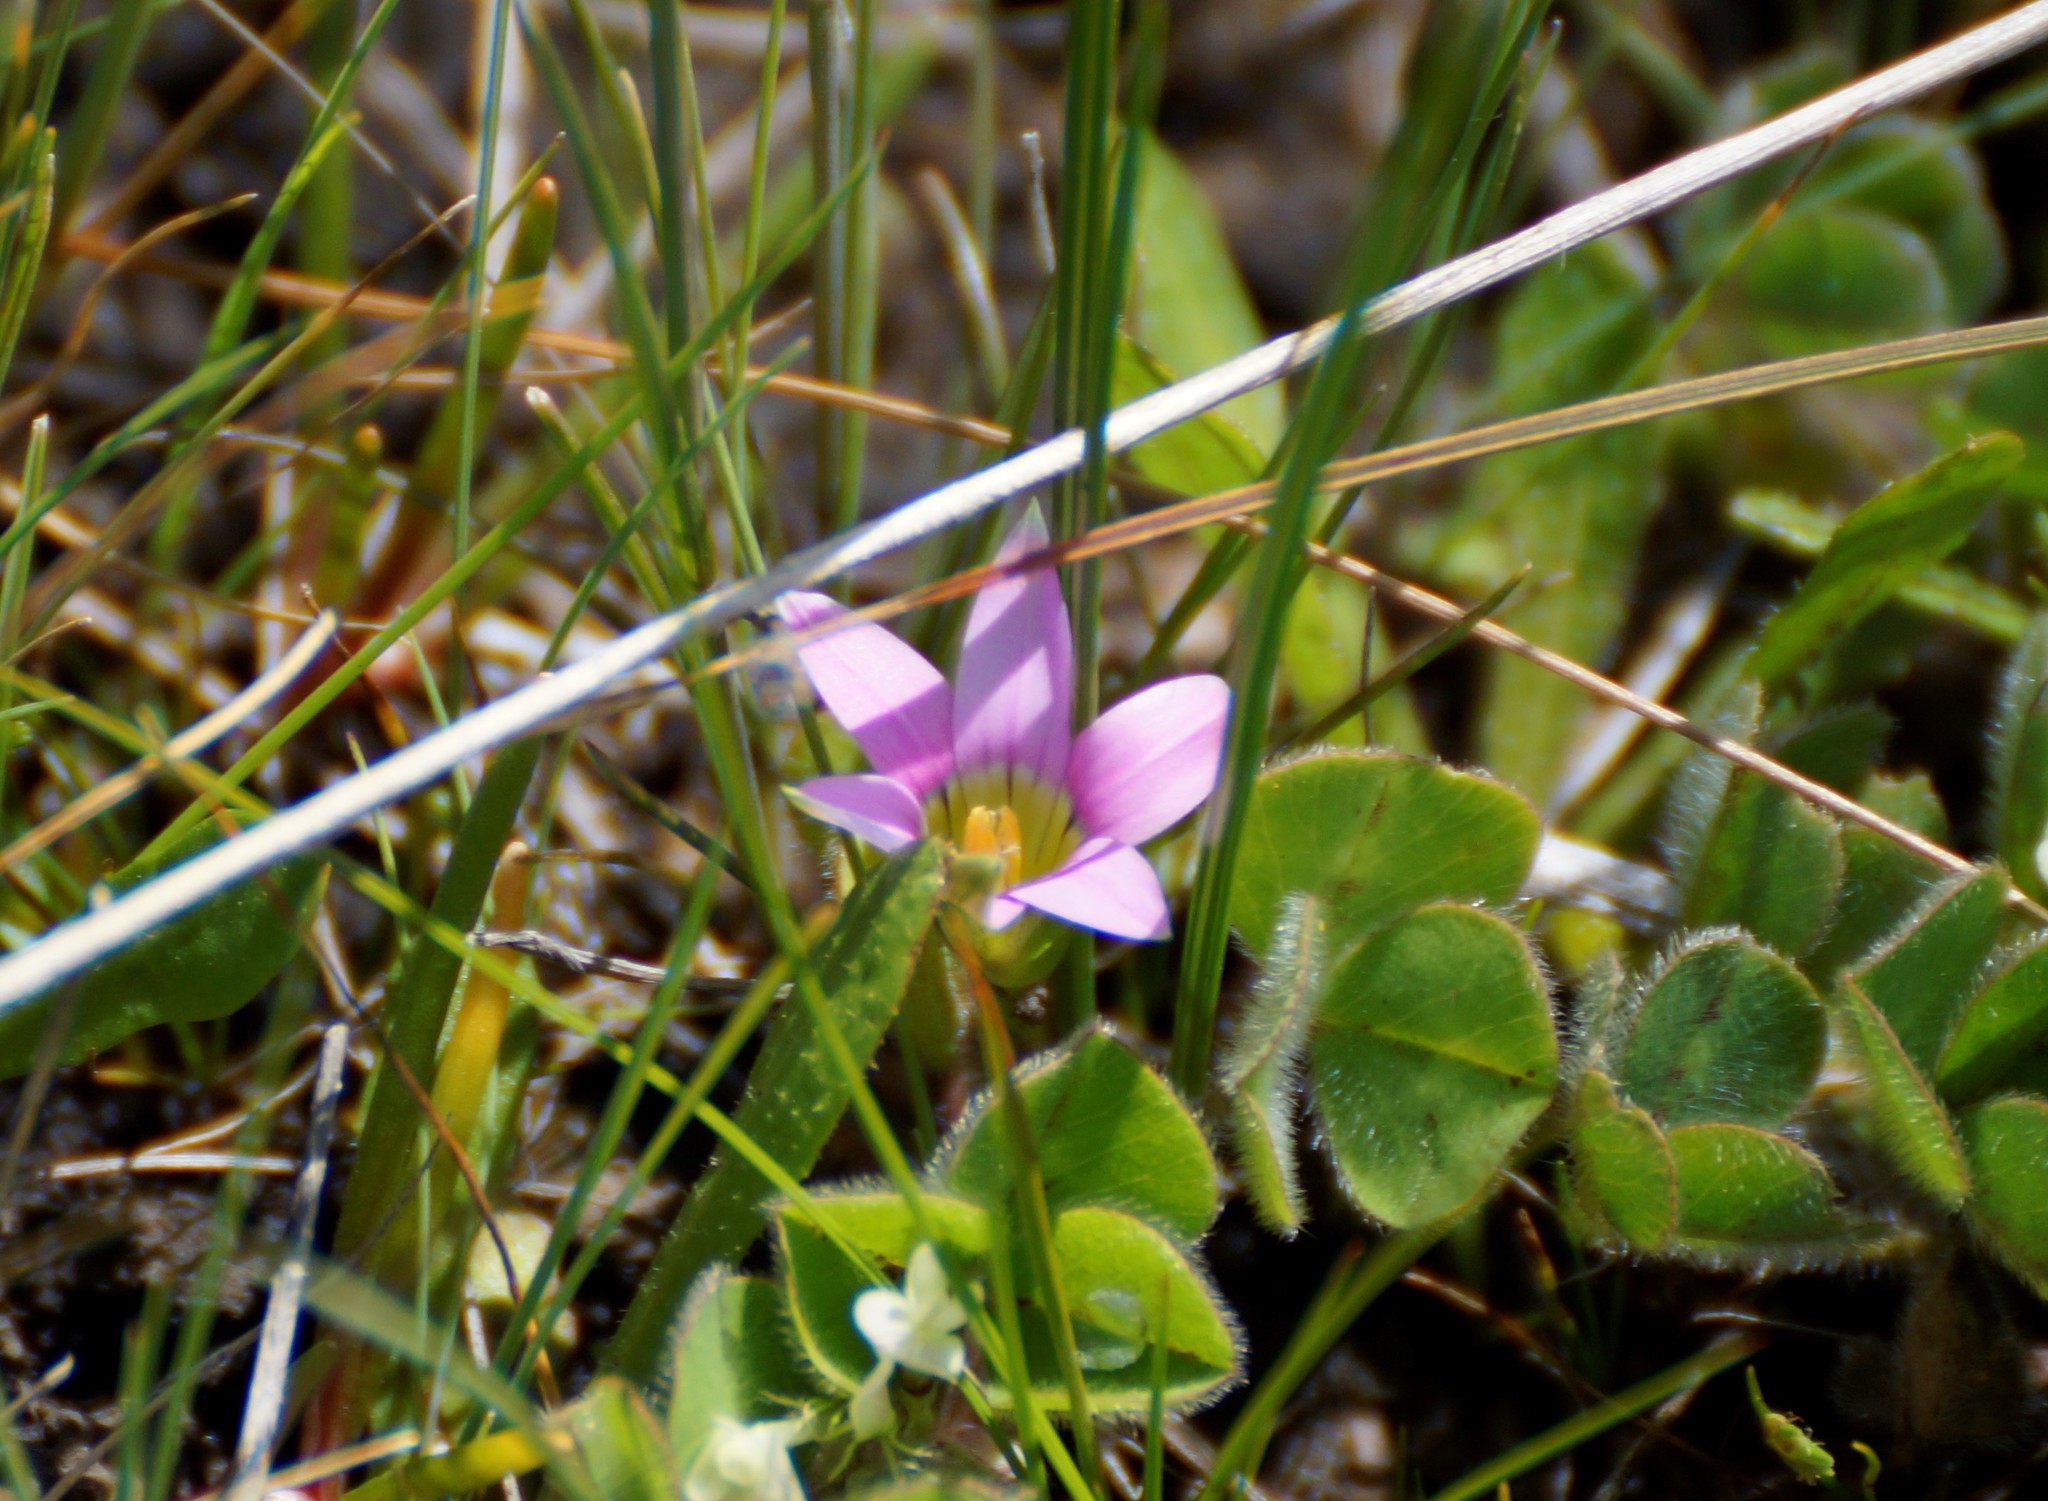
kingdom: Plantae
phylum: Tracheophyta
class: Liliopsida
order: Asparagales
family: Iridaceae
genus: Romulea
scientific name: Romulea rosea
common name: Oniongrass
